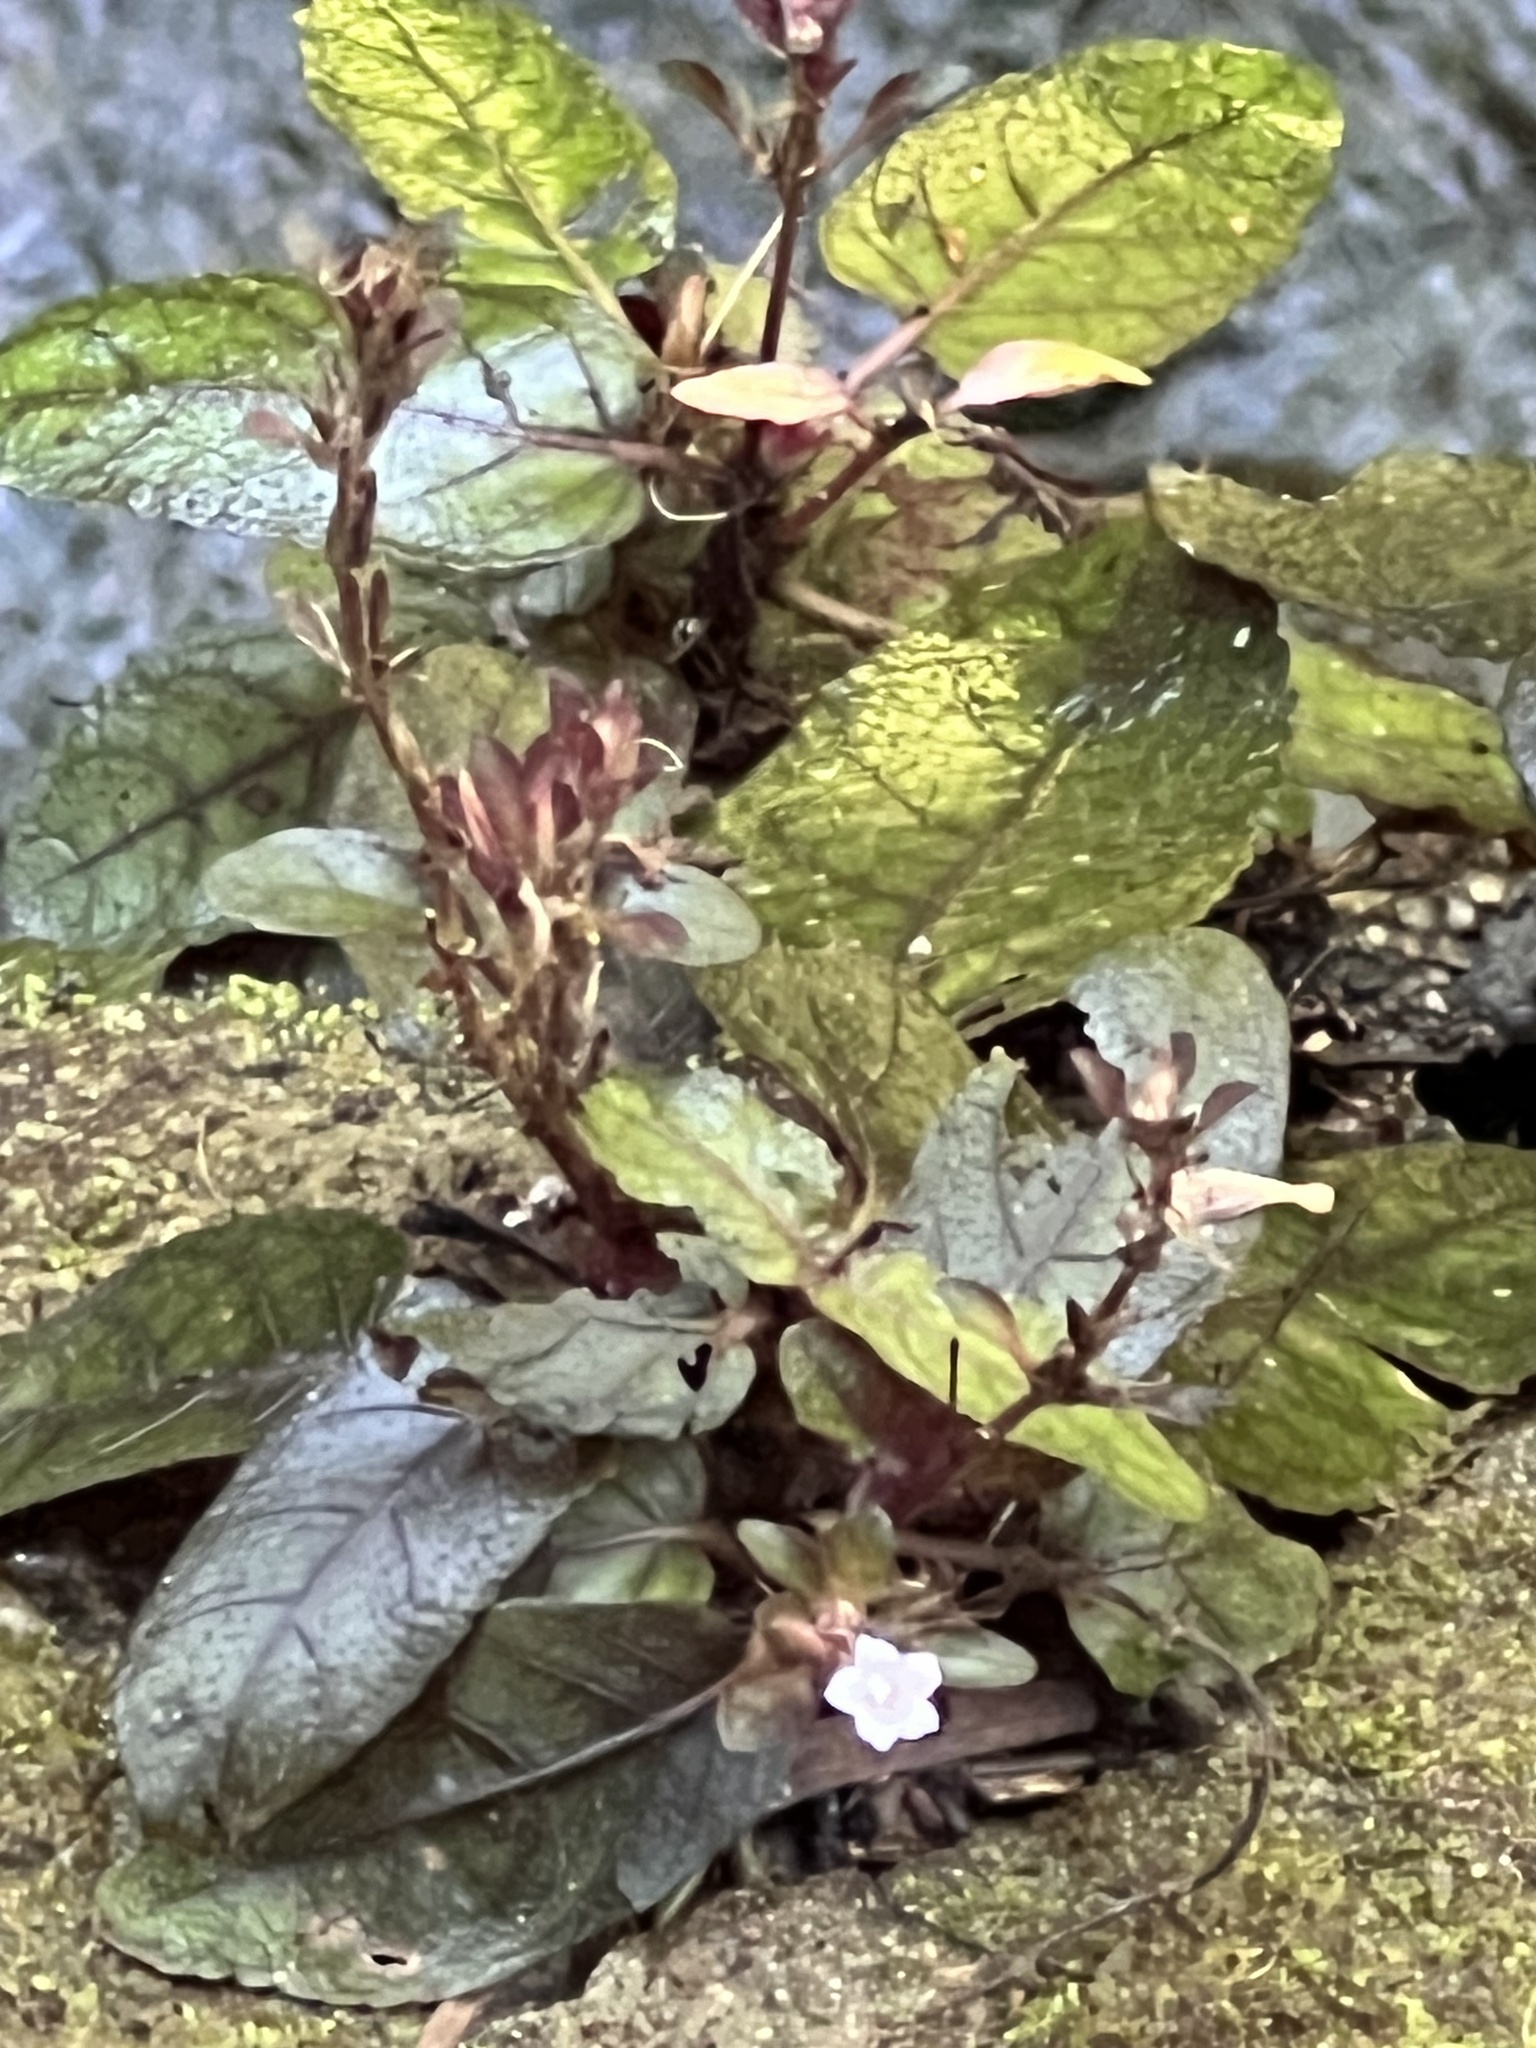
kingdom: Plantae
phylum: Tracheophyta
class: Magnoliopsida
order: Lamiales
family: Acanthaceae
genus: Strobilanthes
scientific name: Strobilanthes reptans
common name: Acanthaceae
